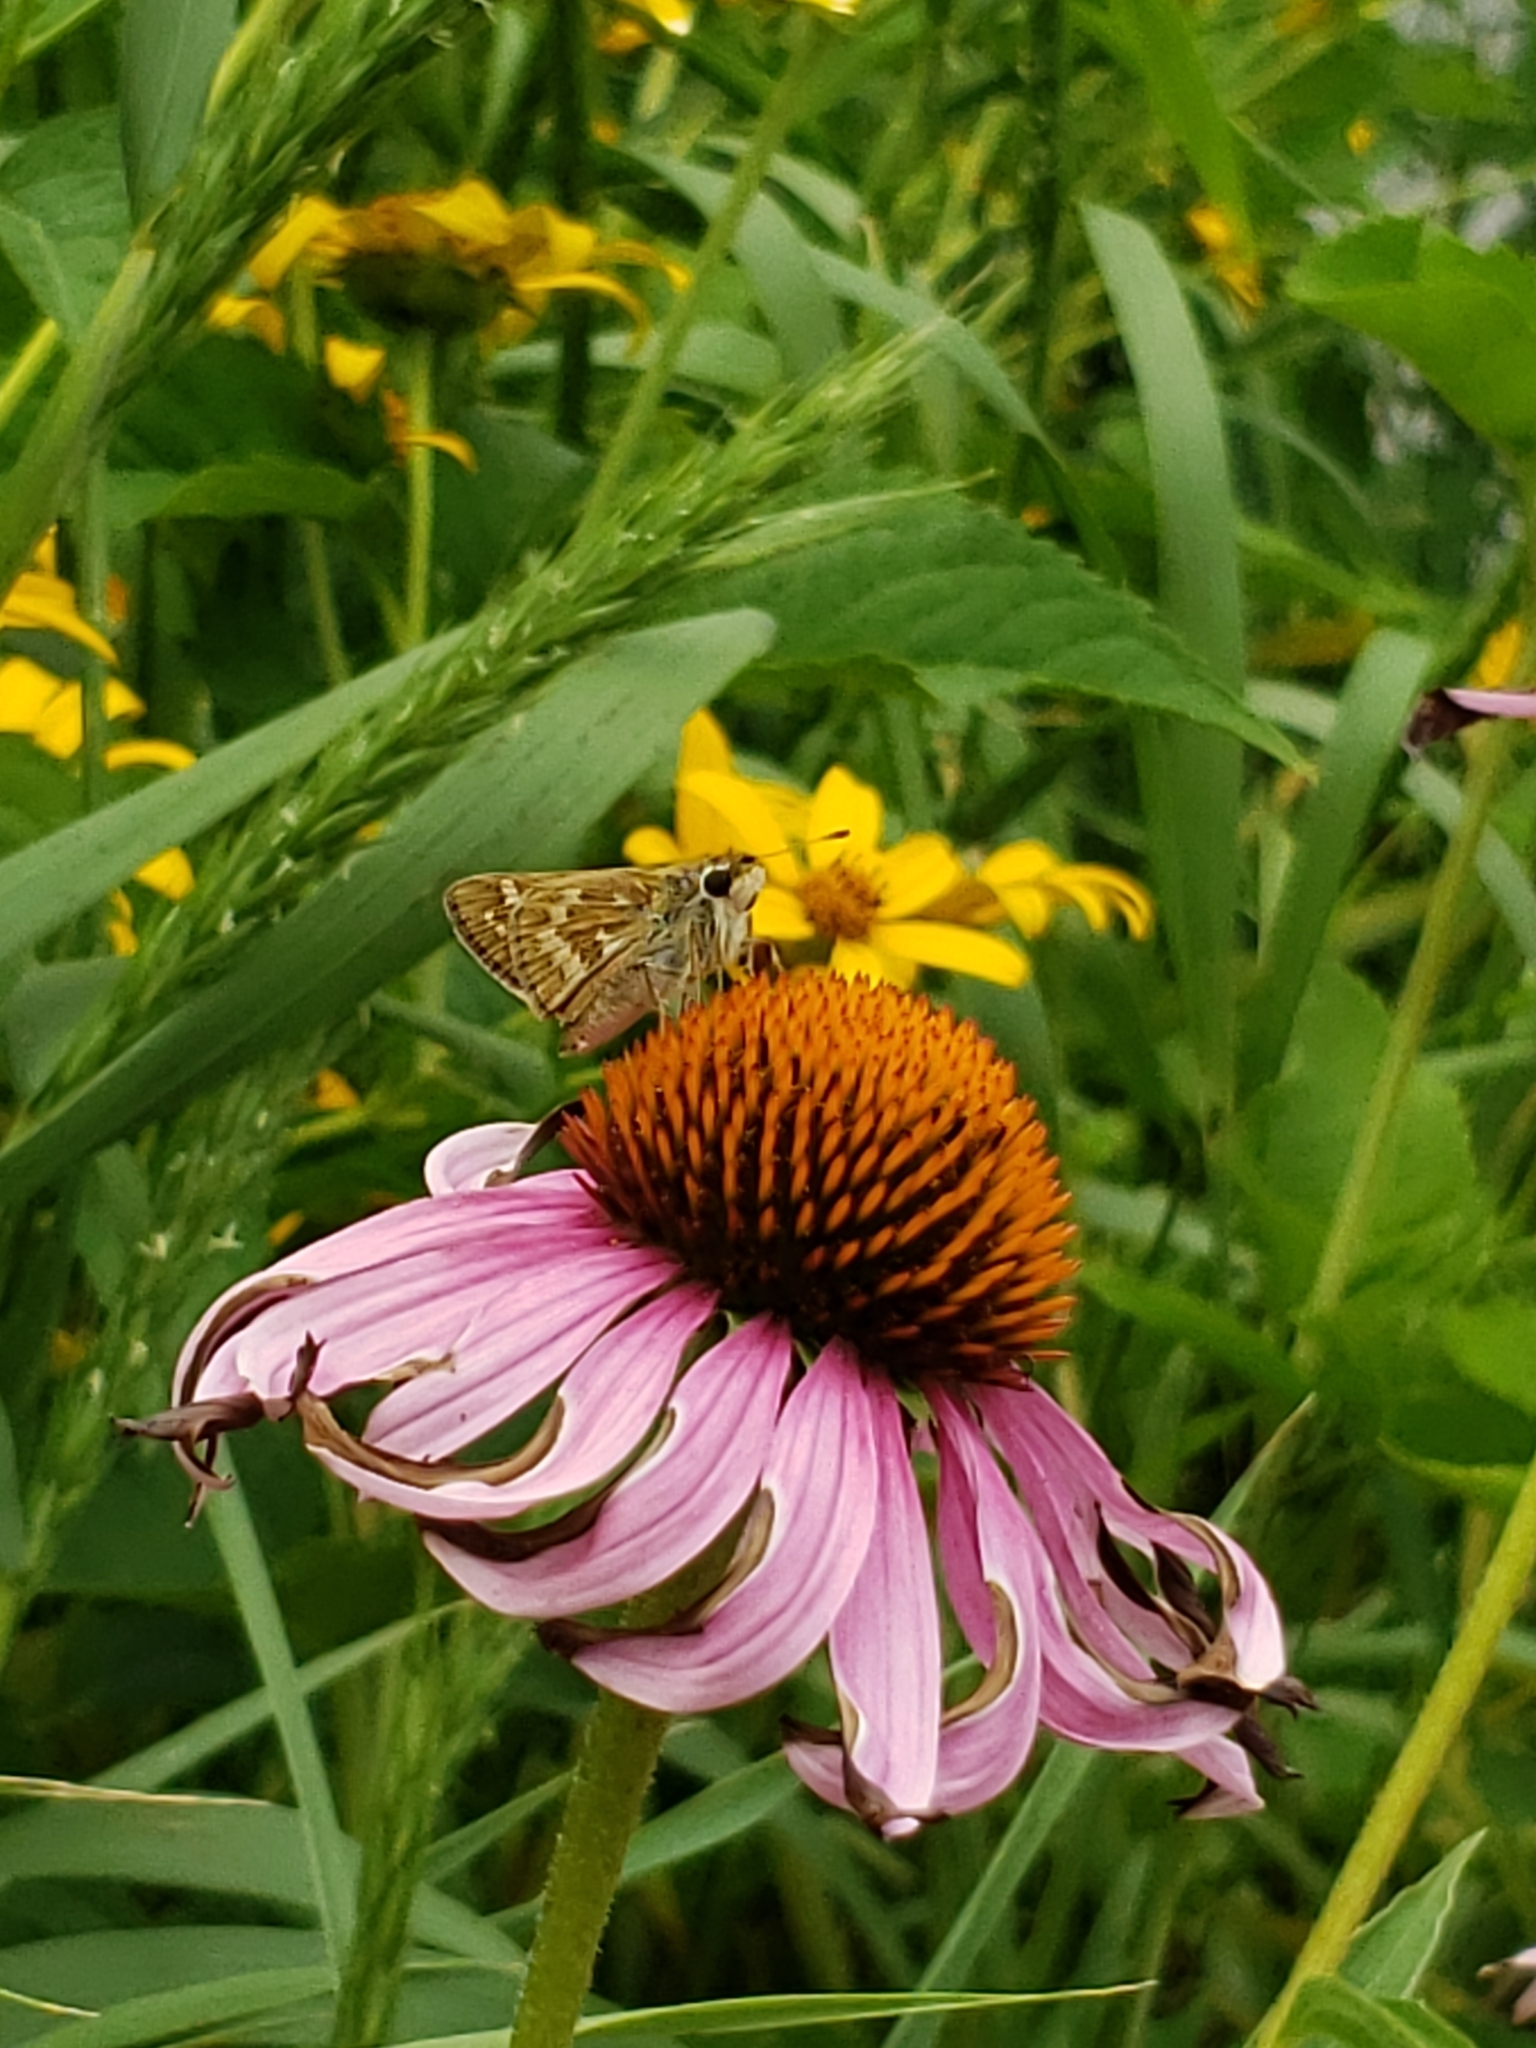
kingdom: Animalia
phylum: Arthropoda
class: Insecta
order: Lepidoptera
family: Hesperiidae
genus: Atalopedes
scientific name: Atalopedes
